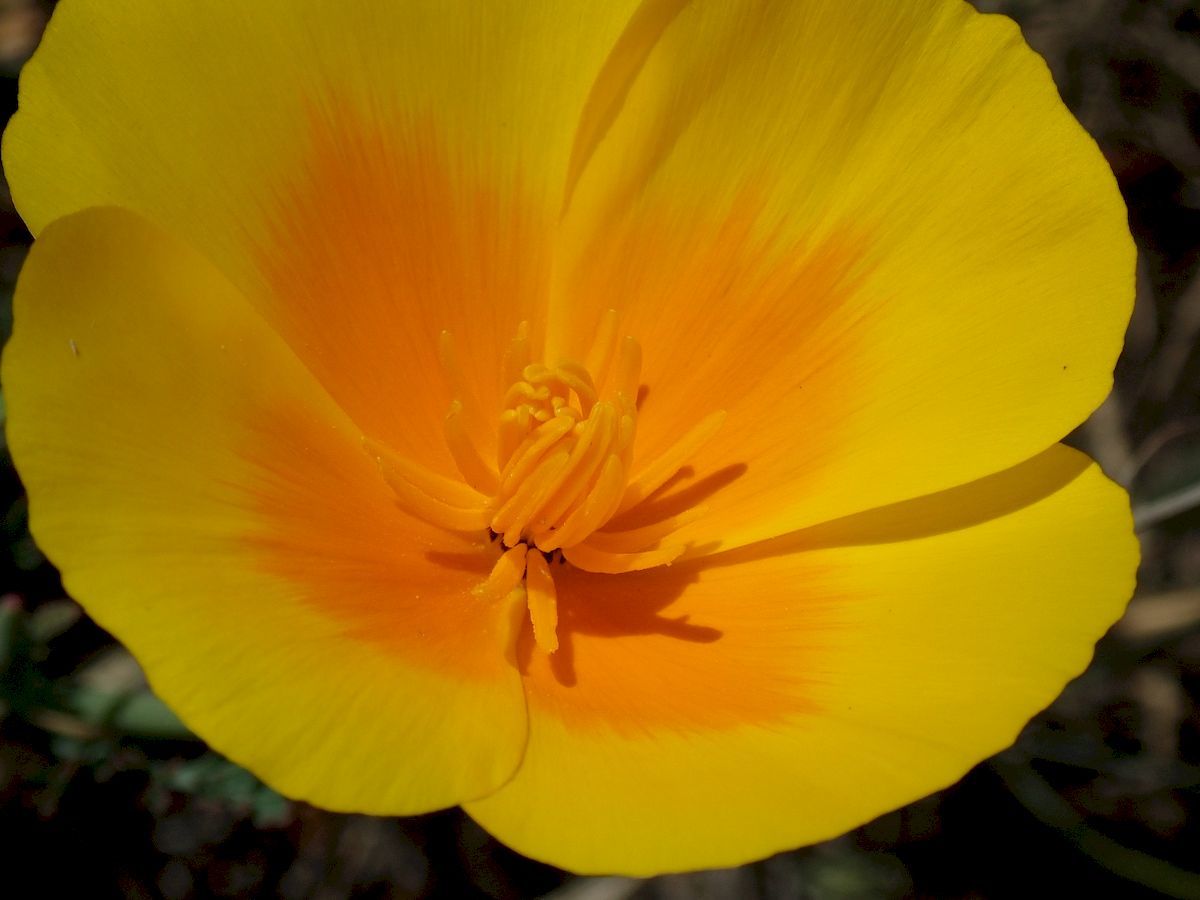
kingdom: Plantae
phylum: Tracheophyta
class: Magnoliopsida
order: Ranunculales
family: Papaveraceae
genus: Eschscholzia
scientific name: Eschscholzia californica
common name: California poppy
